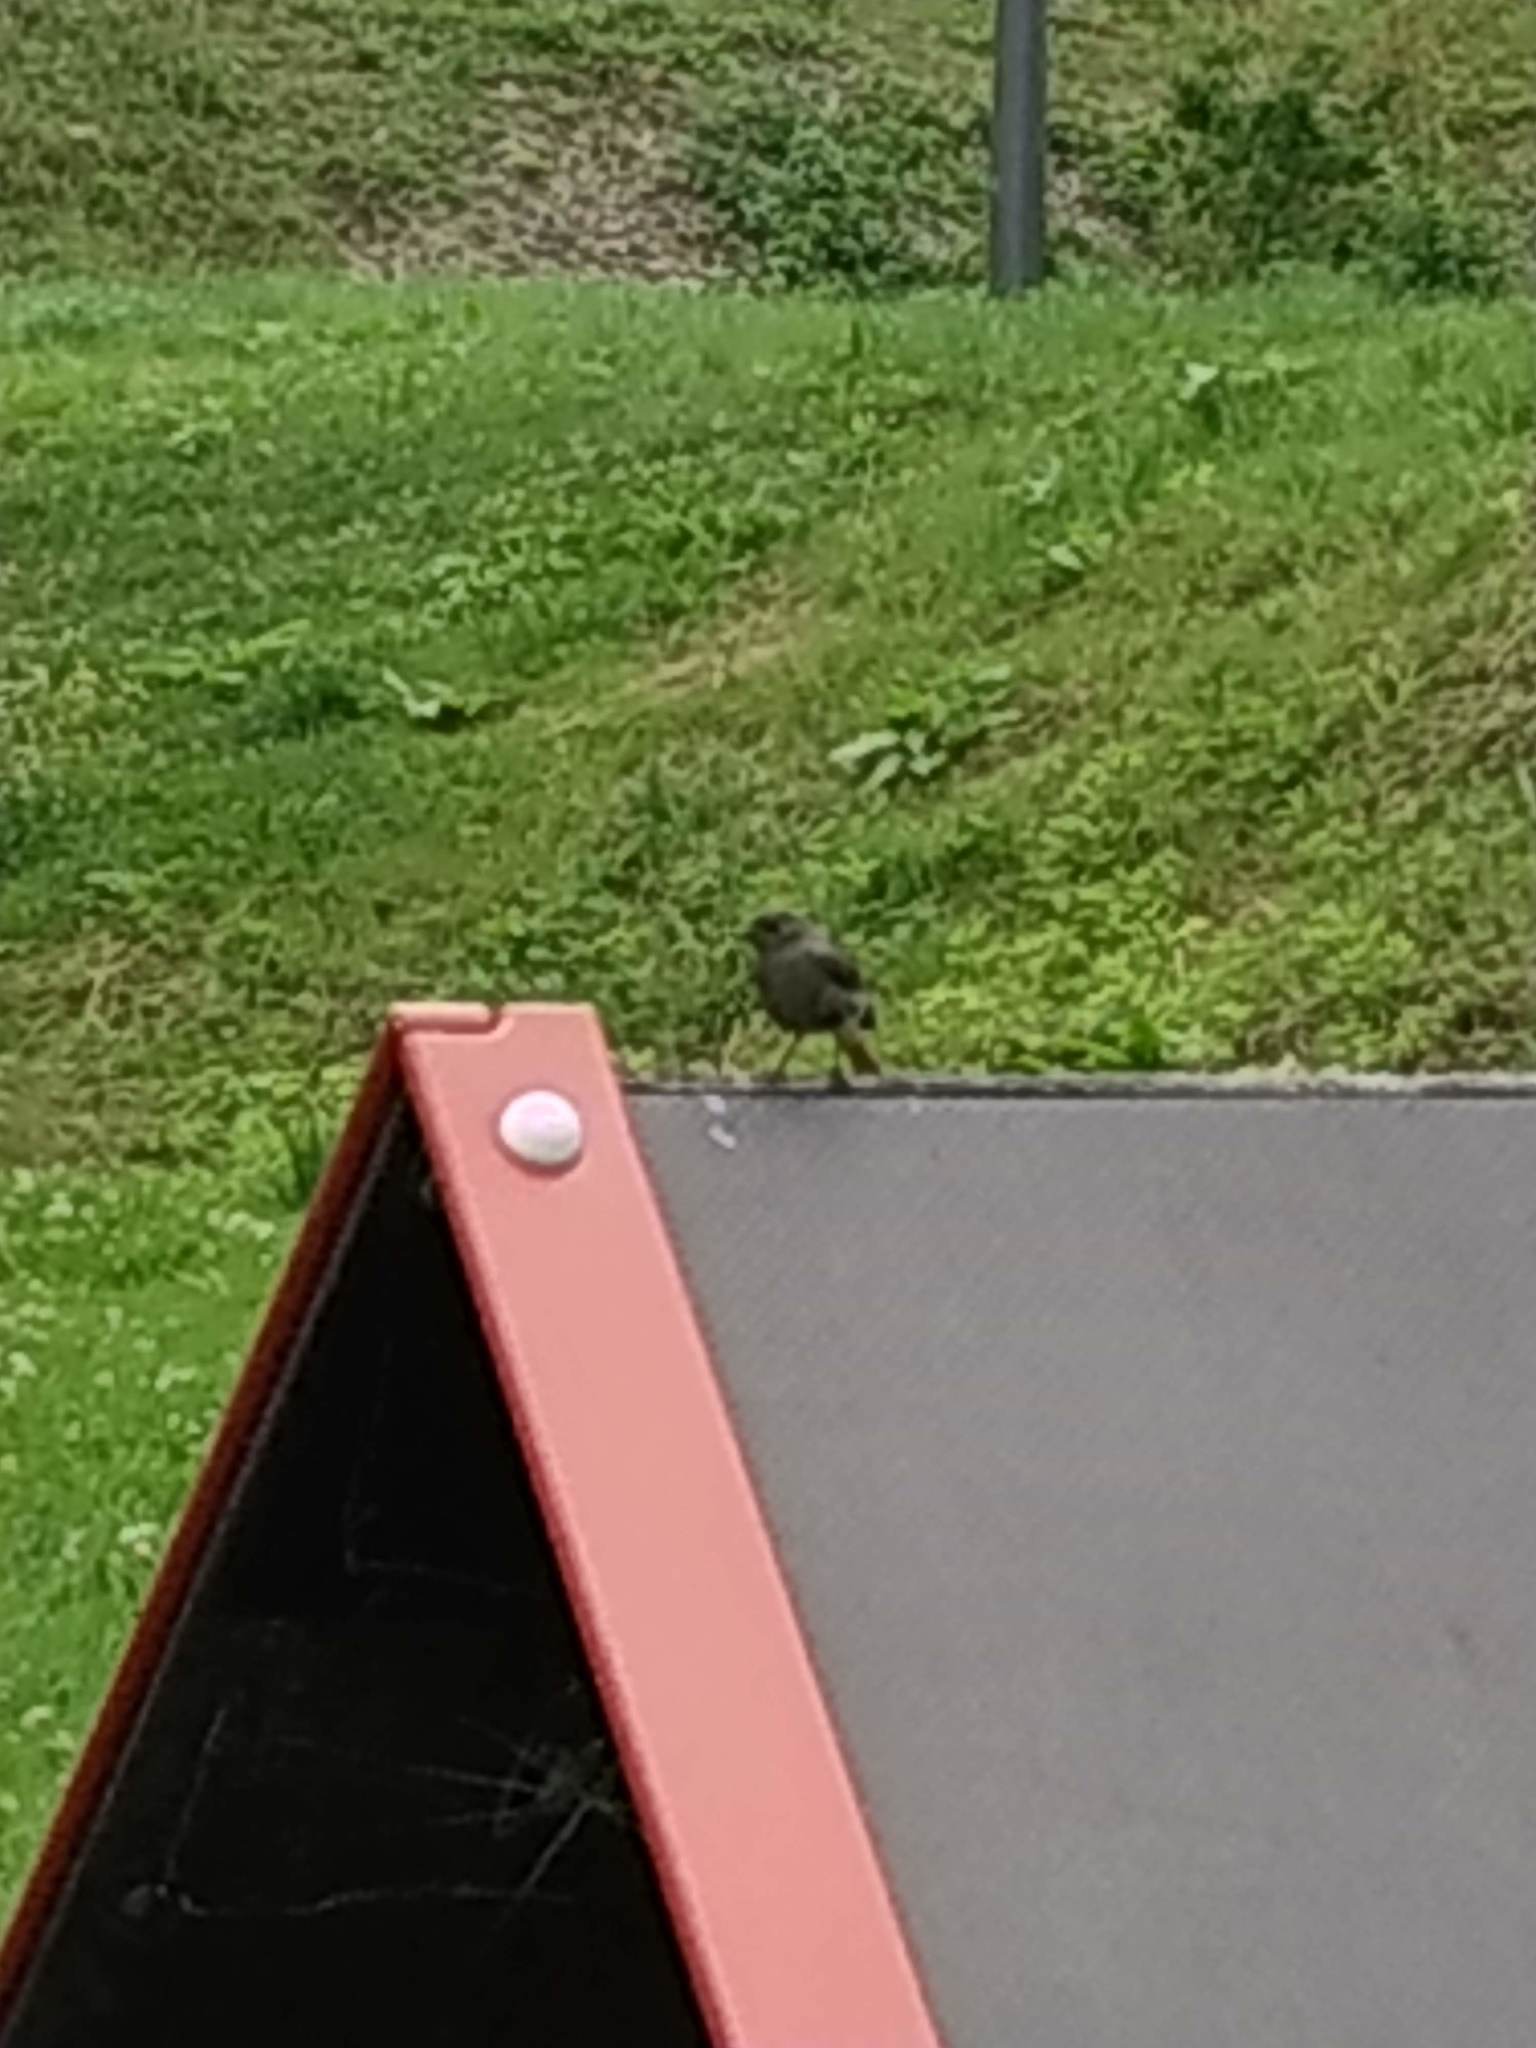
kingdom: Animalia
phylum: Chordata
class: Aves
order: Passeriformes
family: Muscicapidae
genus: Phoenicurus
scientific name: Phoenicurus ochruros
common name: Black redstart
